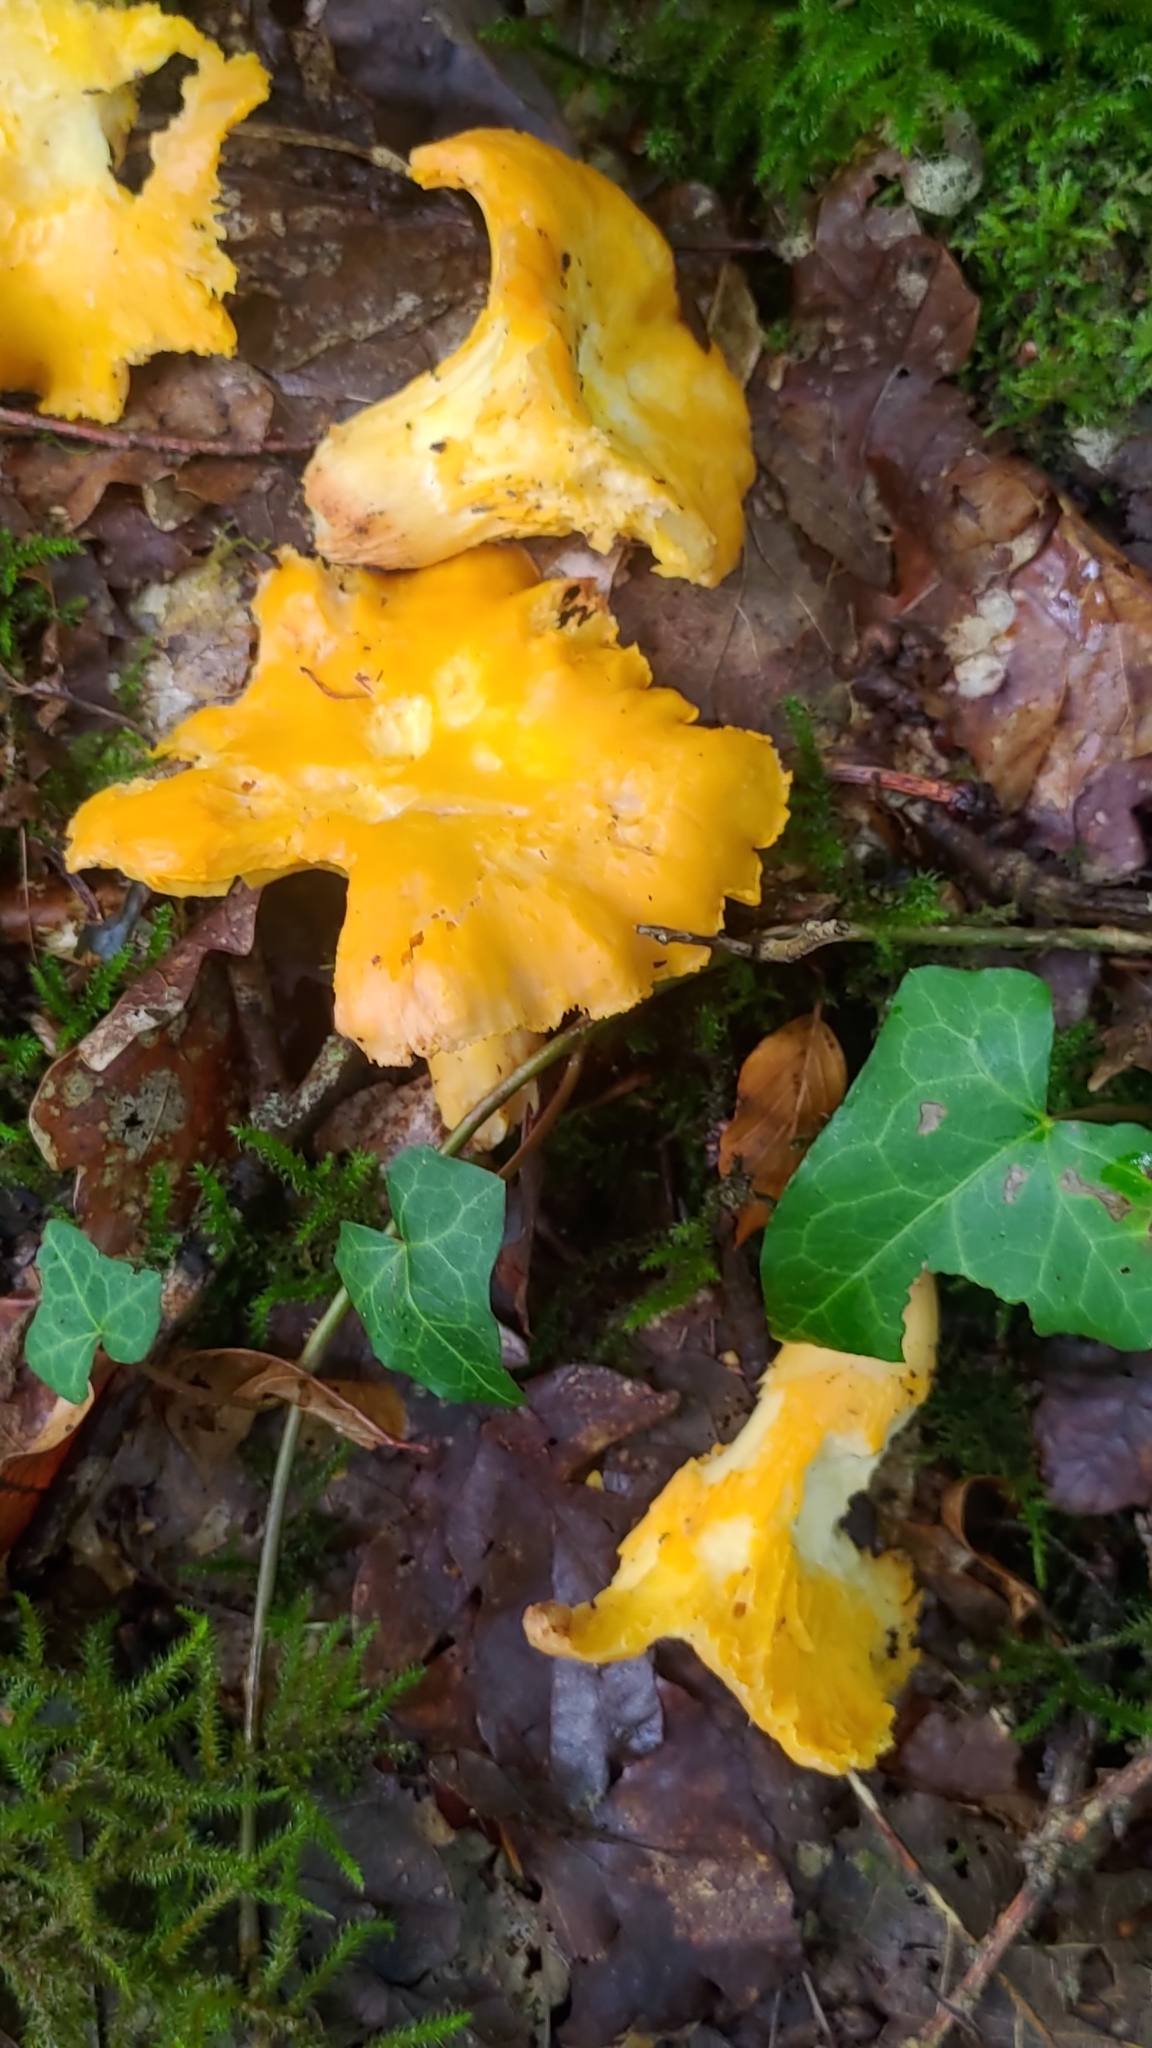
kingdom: Fungi
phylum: Basidiomycota
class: Agaricomycetes
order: Cantharellales
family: Hydnaceae
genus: Cantharellus
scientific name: Cantharellus cibarius
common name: Chanterelle
